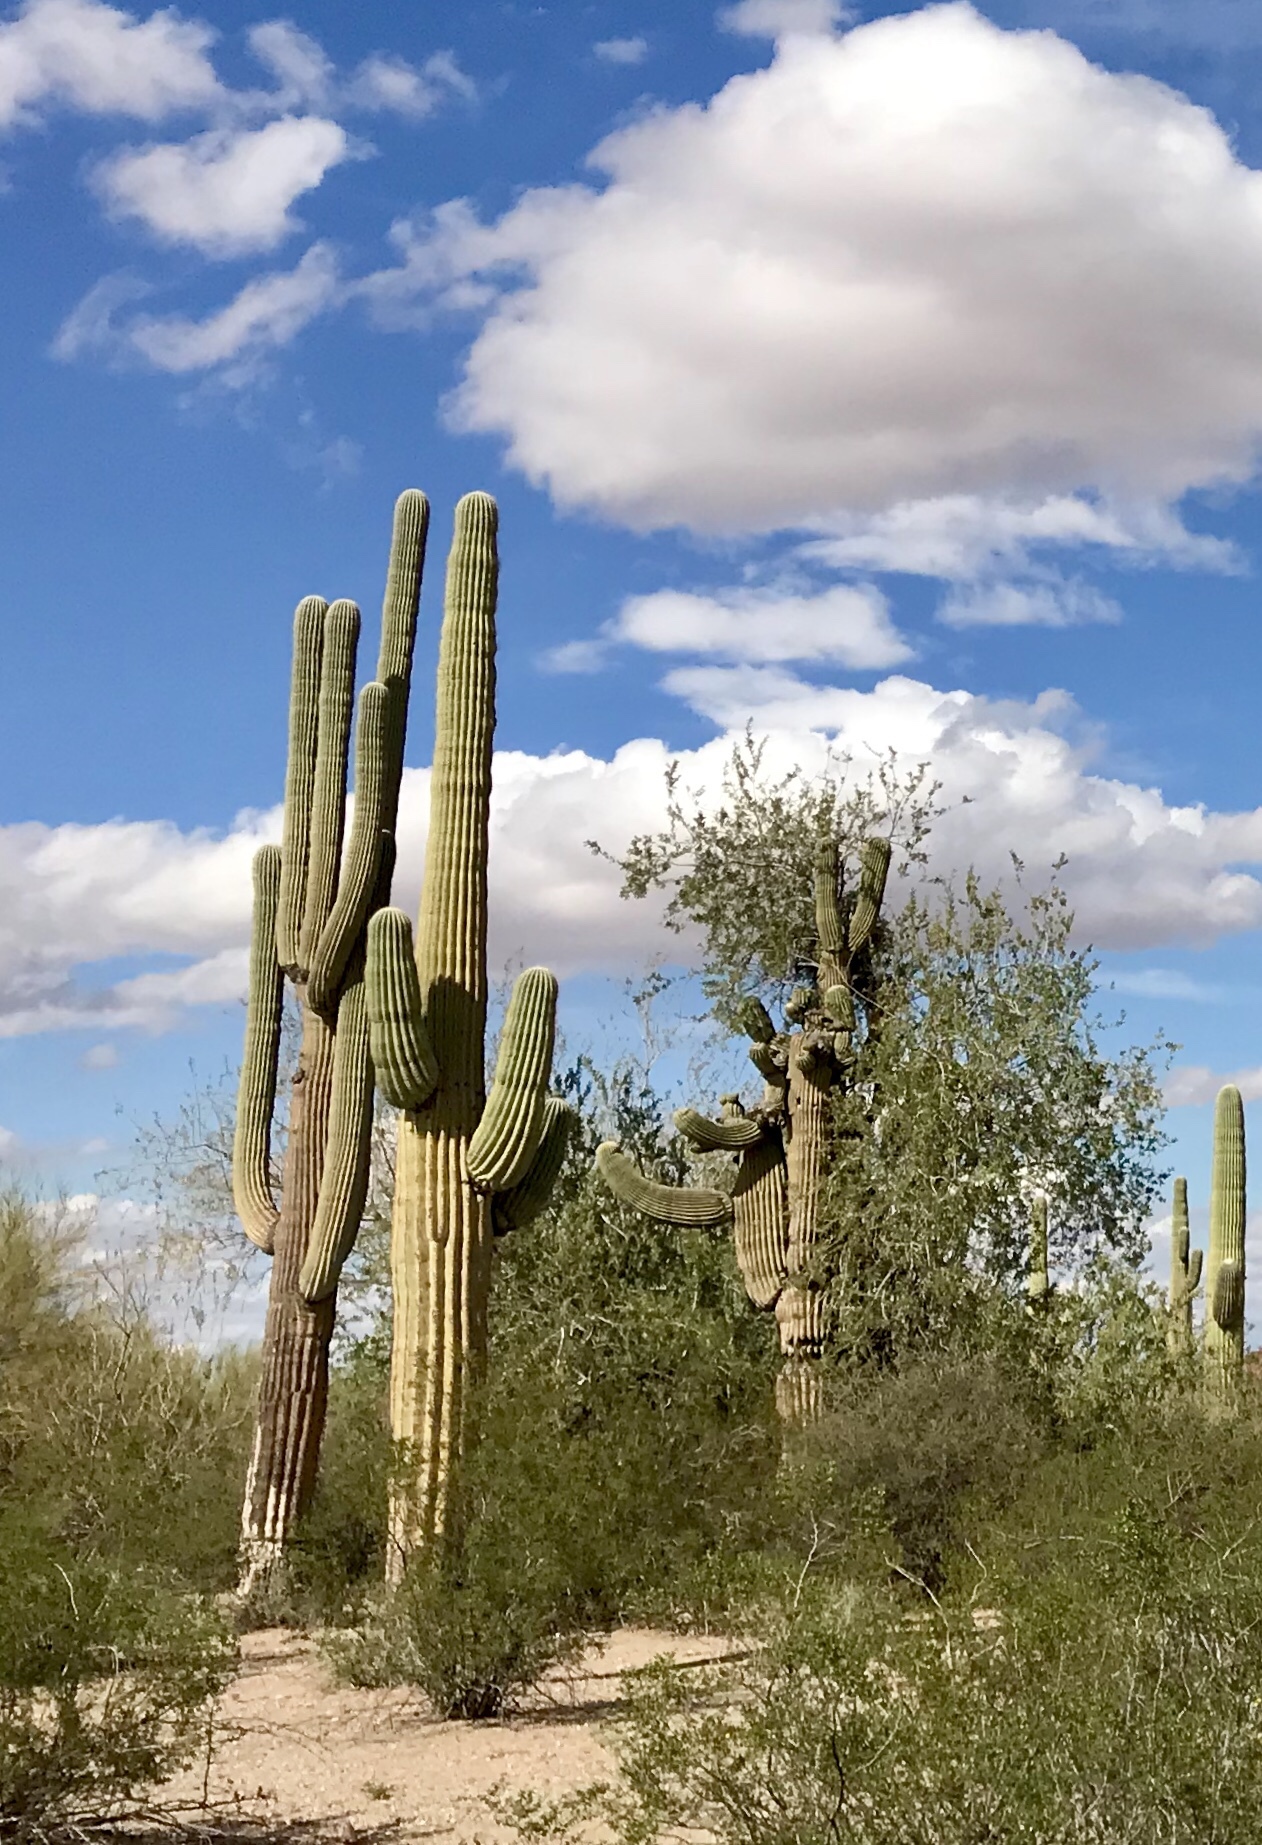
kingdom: Plantae
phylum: Tracheophyta
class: Magnoliopsida
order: Caryophyllales
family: Cactaceae
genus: Carnegiea
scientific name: Carnegiea gigantea
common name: Saguaro
